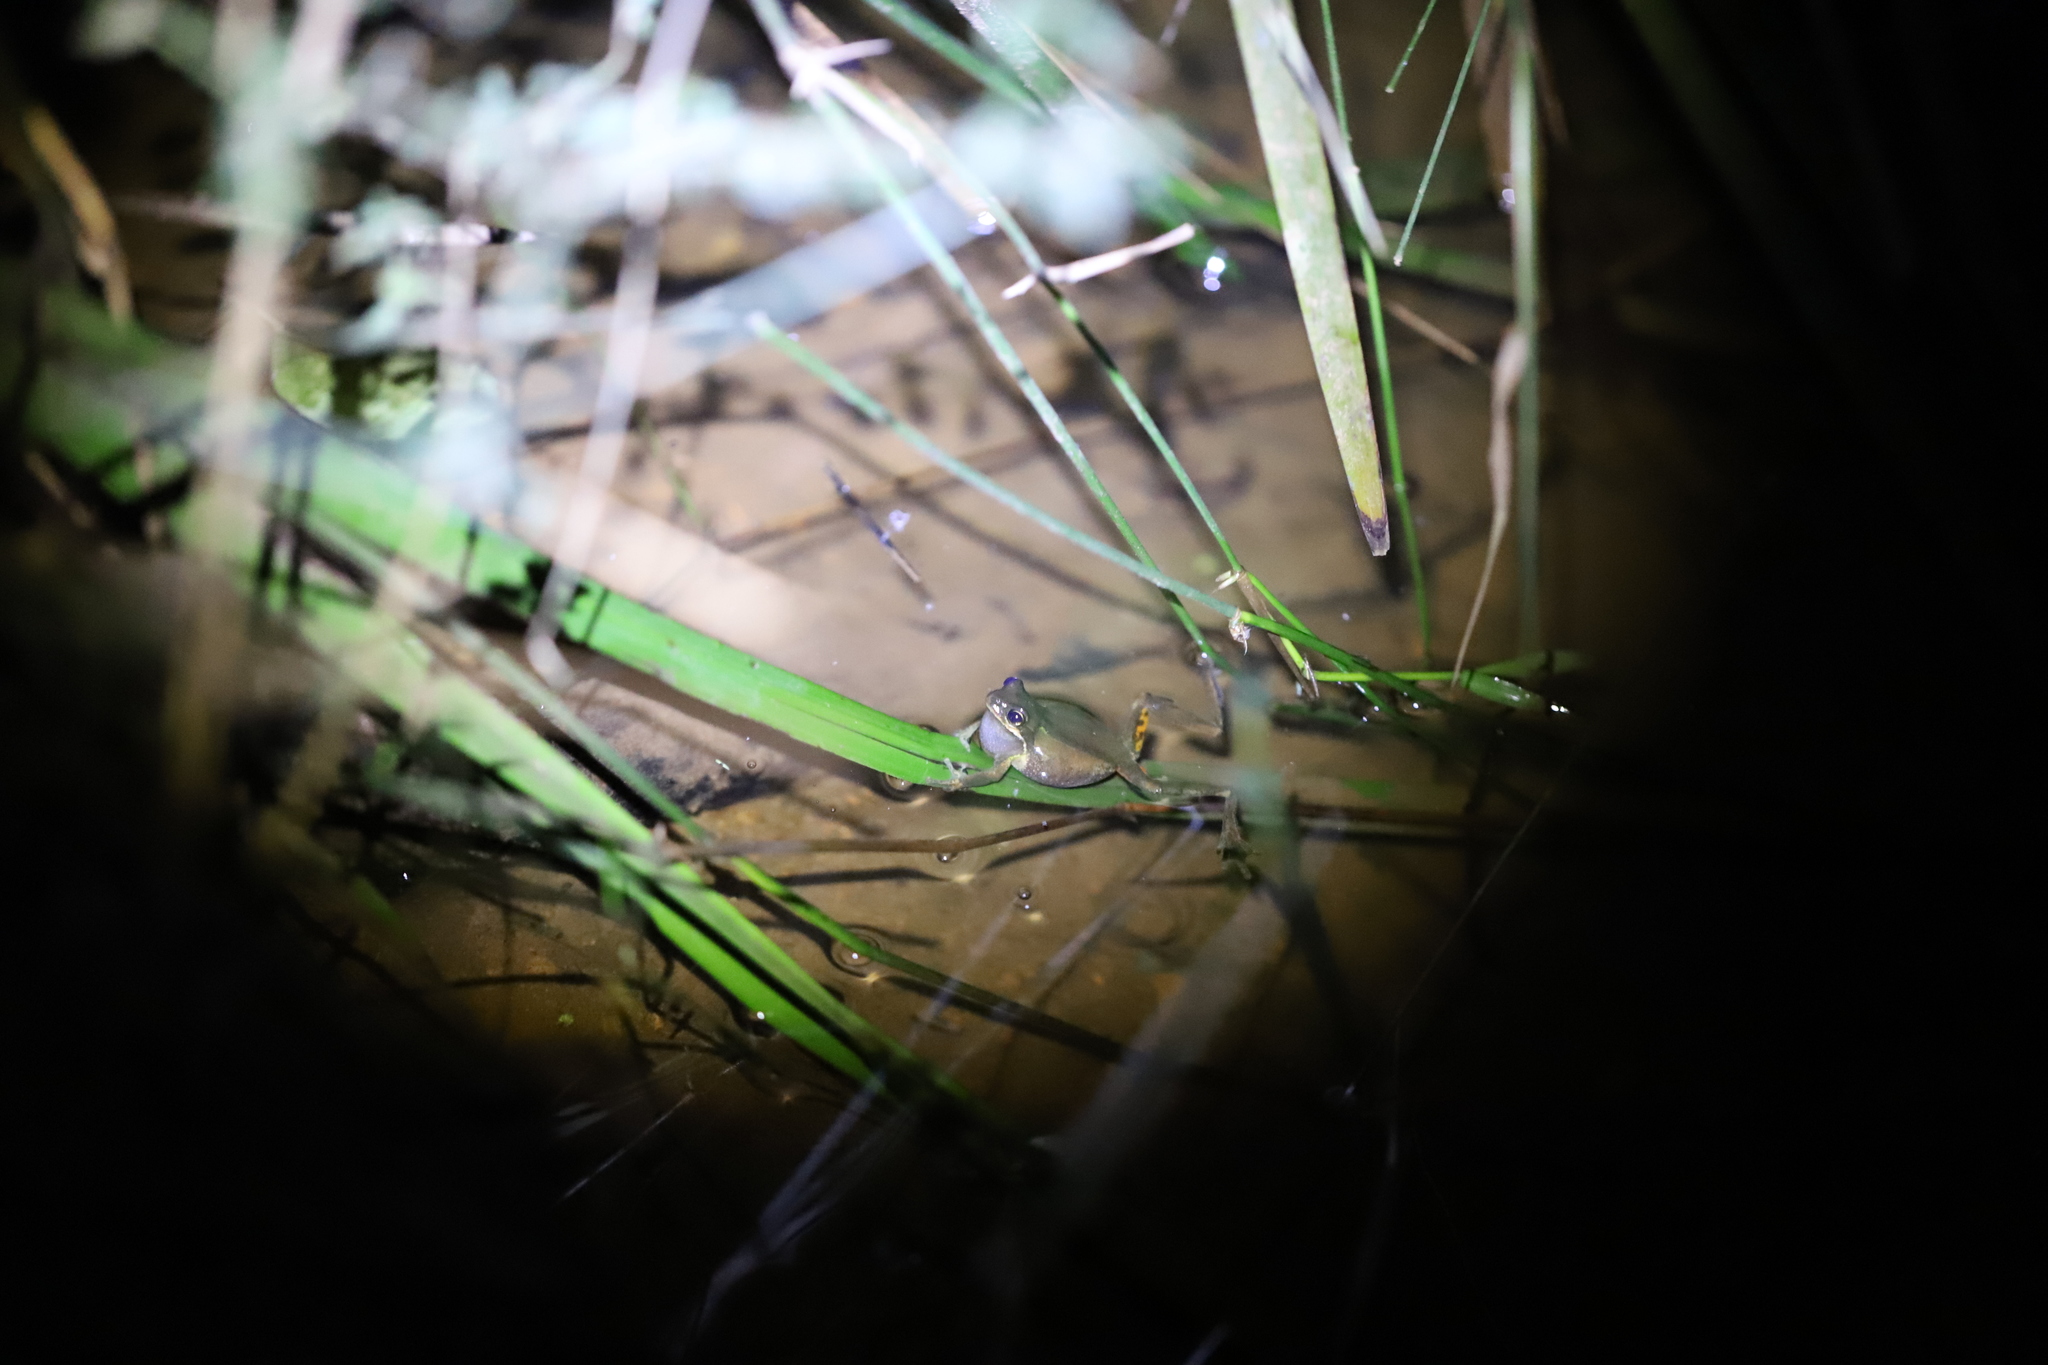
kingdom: Animalia
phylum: Chordata
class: Amphibia
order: Anura
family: Pelodryadidae
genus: Litoria
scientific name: Litoria ewingii
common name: Southern brown tree frog
